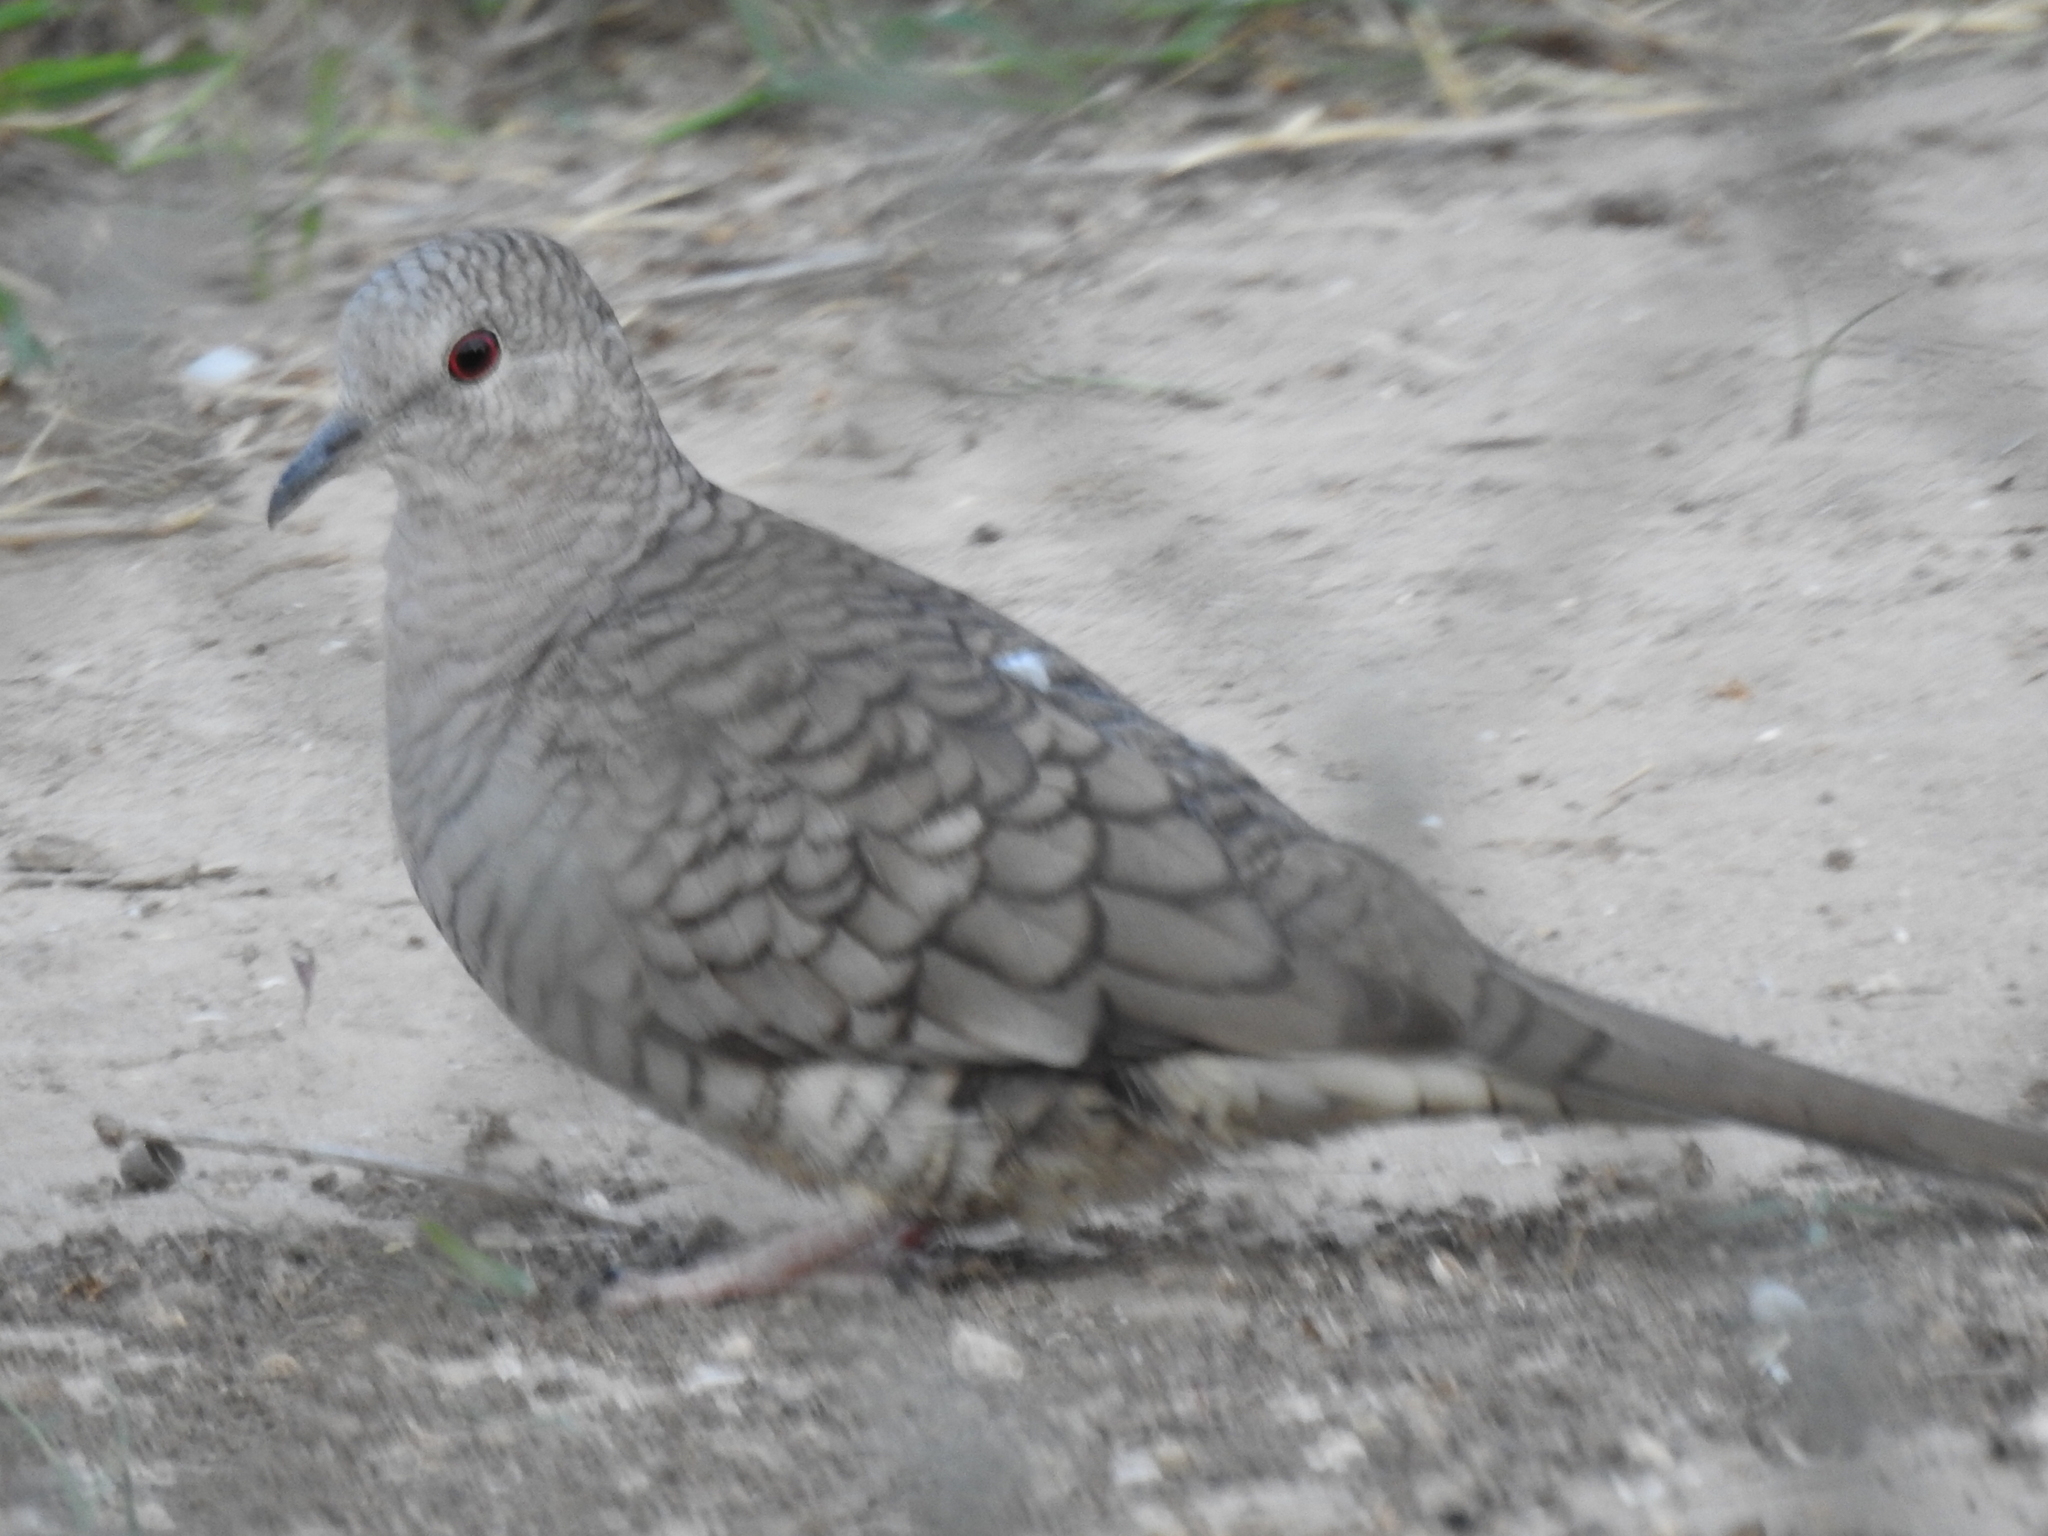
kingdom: Animalia
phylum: Chordata
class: Aves
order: Columbiformes
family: Columbidae
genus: Columbina
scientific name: Columbina inca
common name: Inca dove
